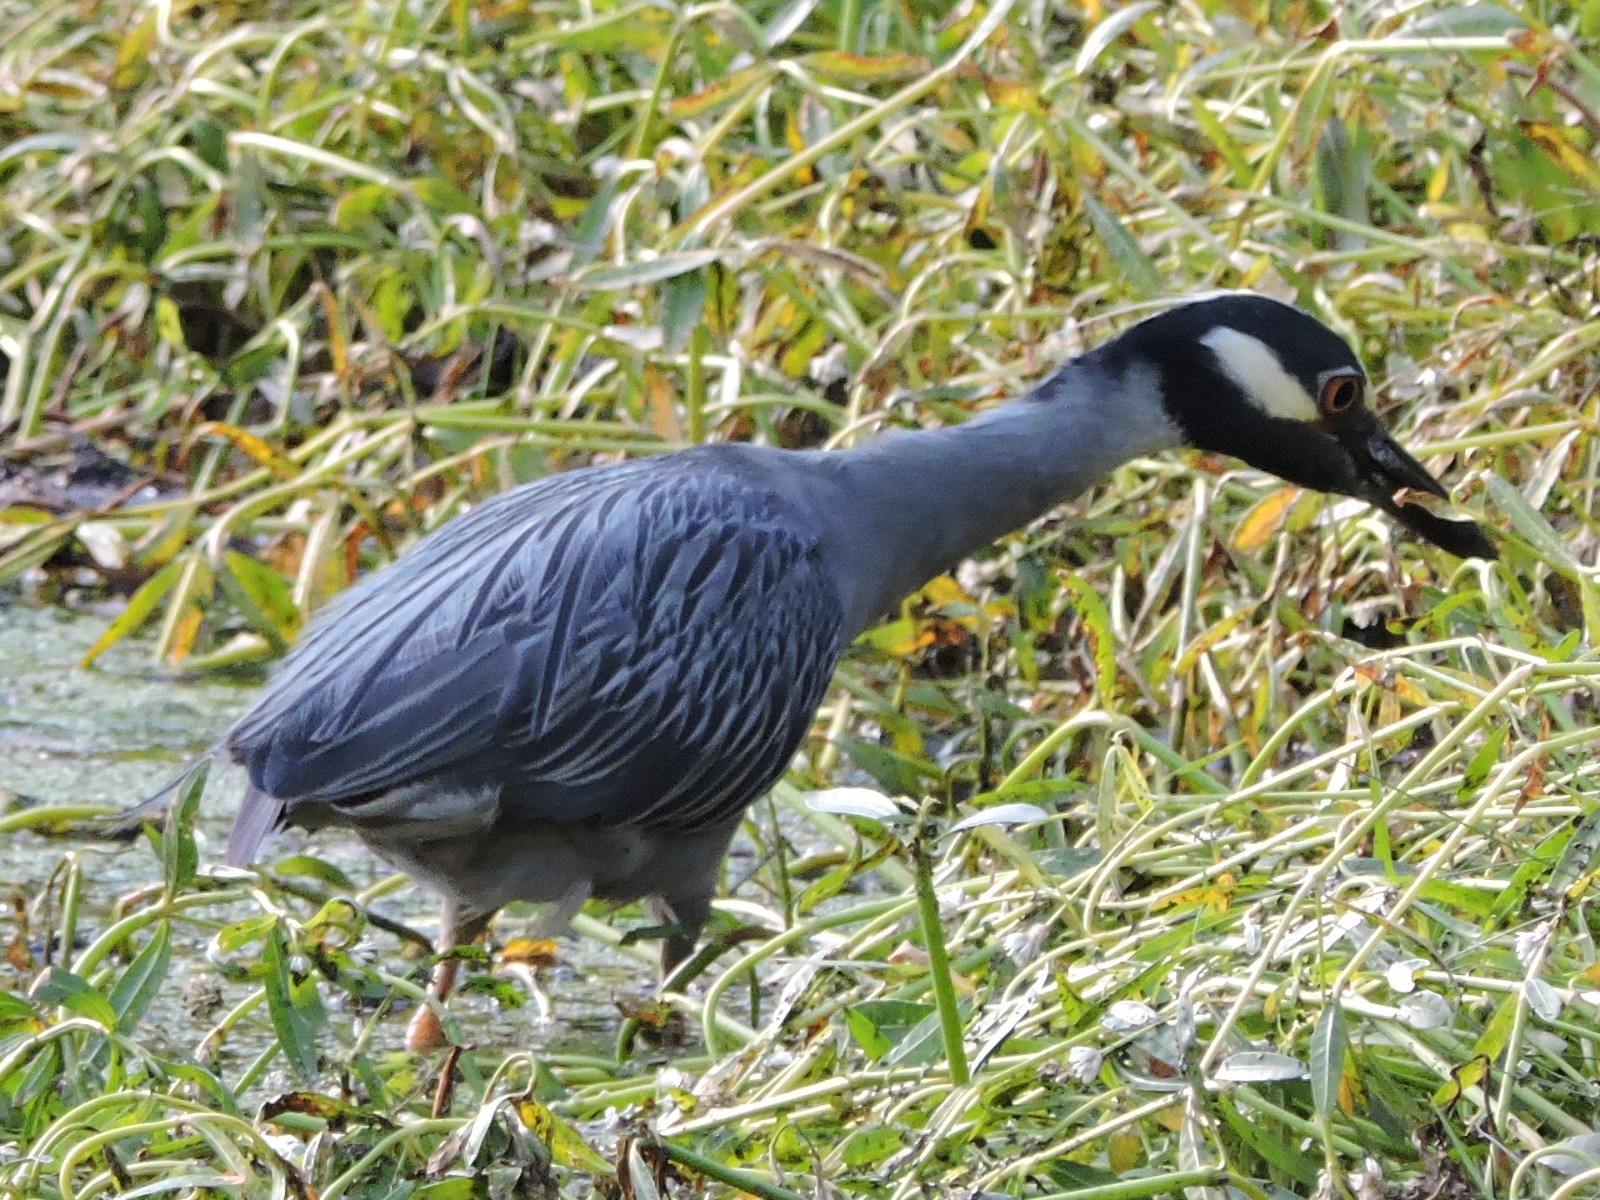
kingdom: Animalia
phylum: Chordata
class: Aves
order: Pelecaniformes
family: Ardeidae
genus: Nyctanassa
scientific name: Nyctanassa violacea
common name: Yellow-crowned night heron
